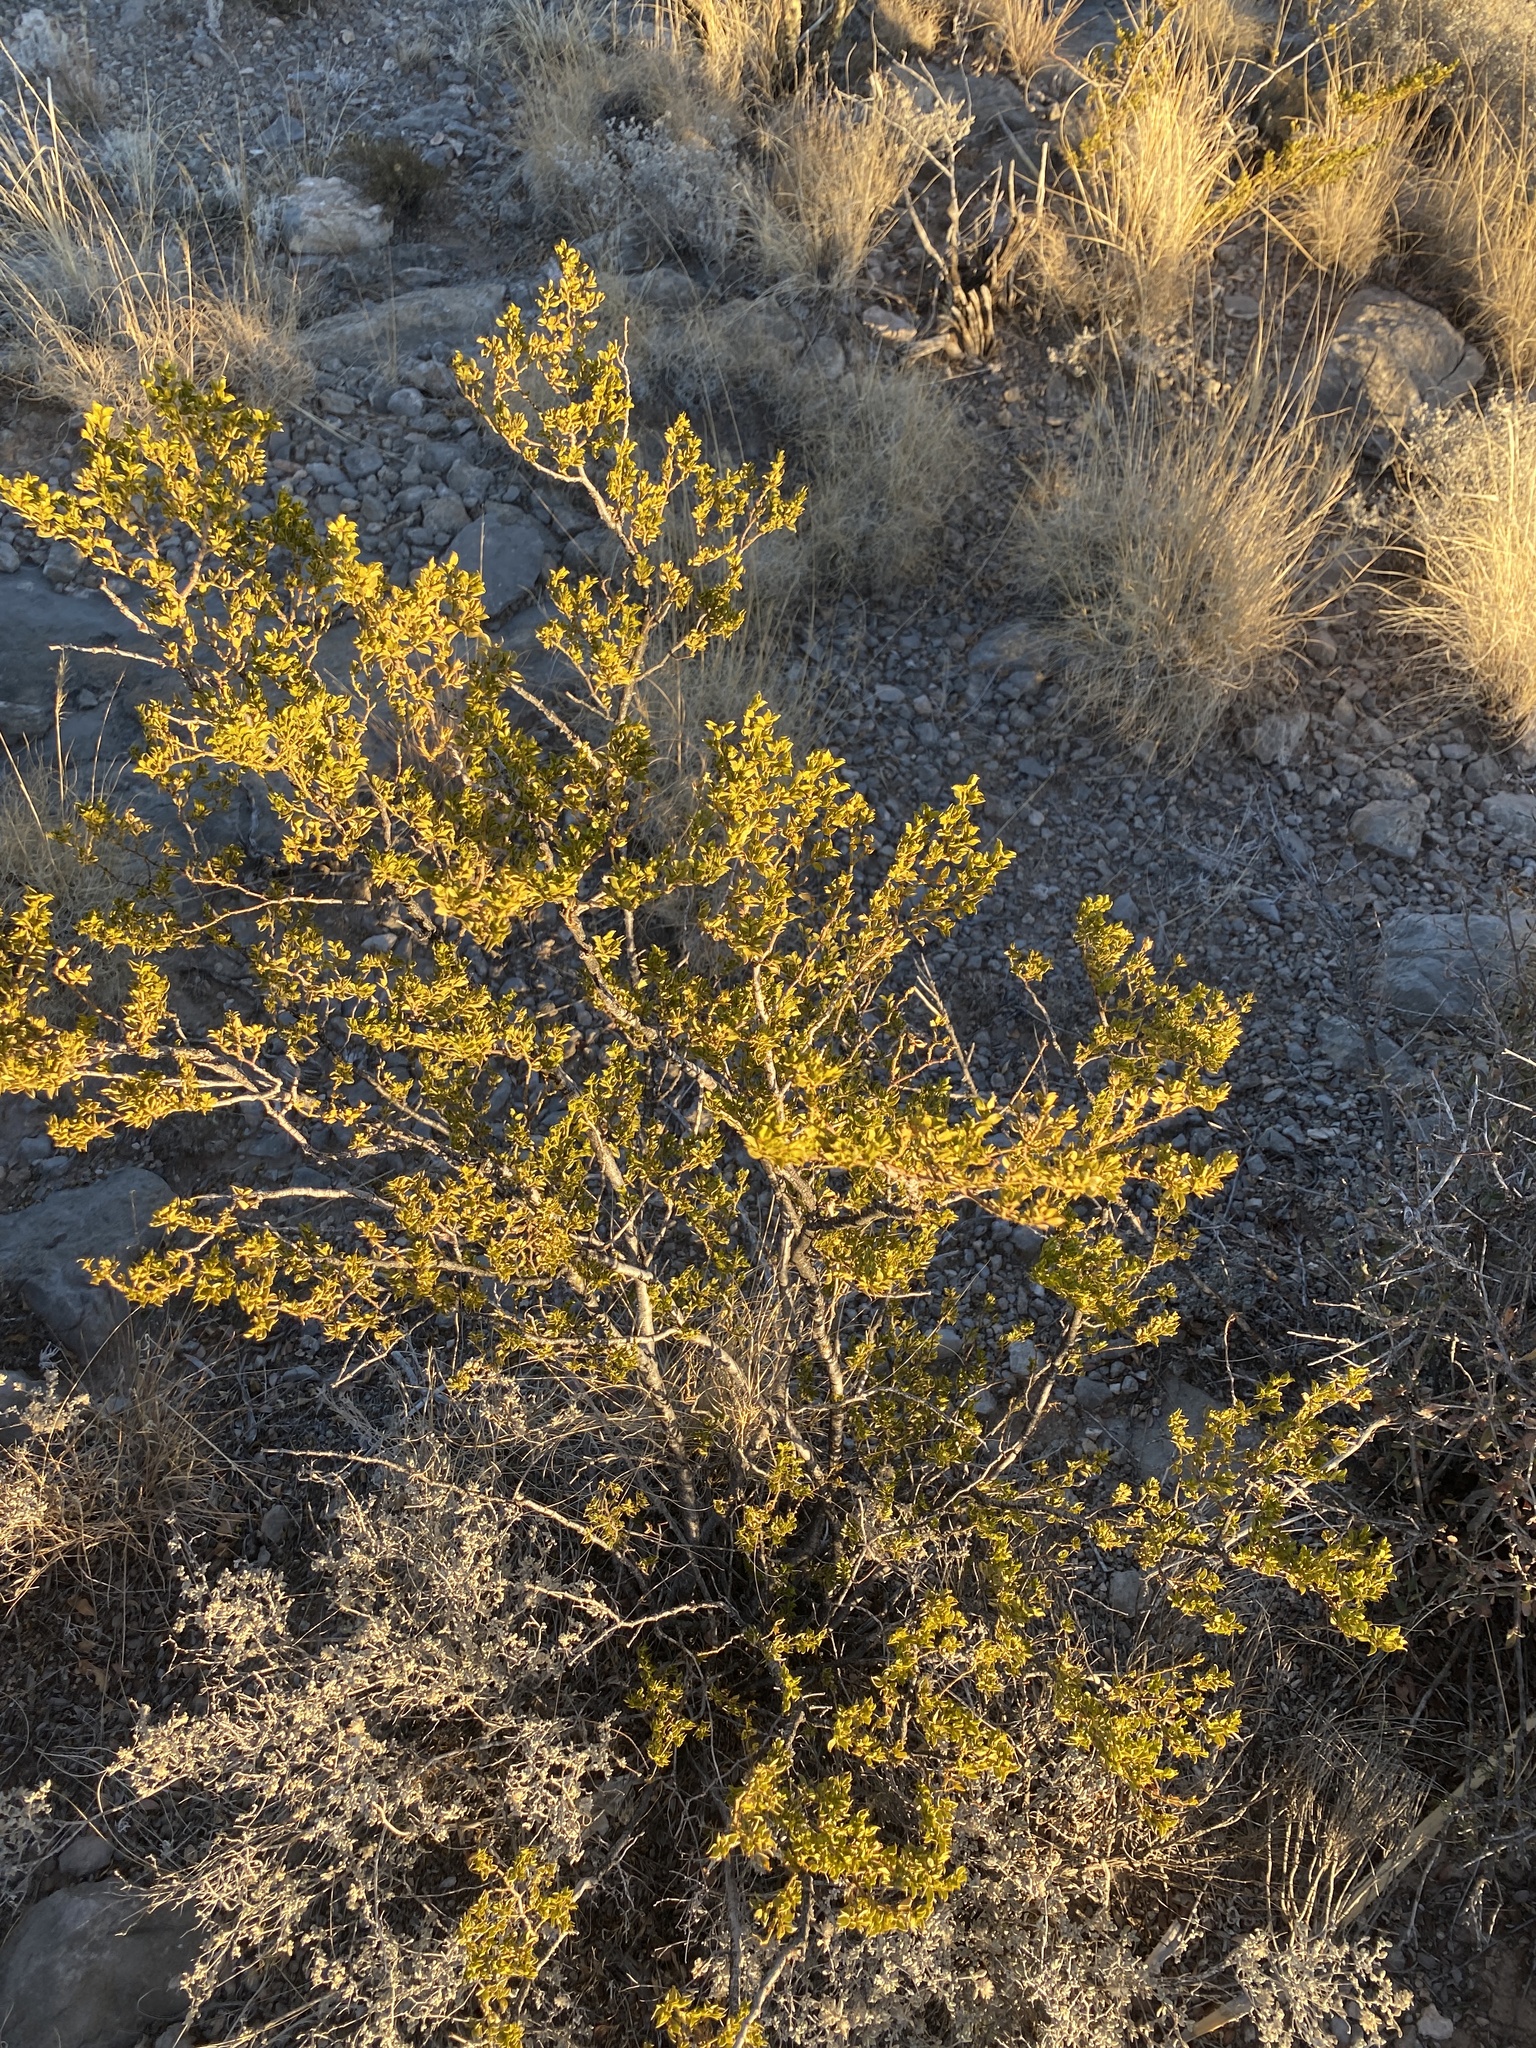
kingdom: Plantae
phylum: Tracheophyta
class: Magnoliopsida
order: Zygophyllales
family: Zygophyllaceae
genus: Larrea
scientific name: Larrea tridentata
